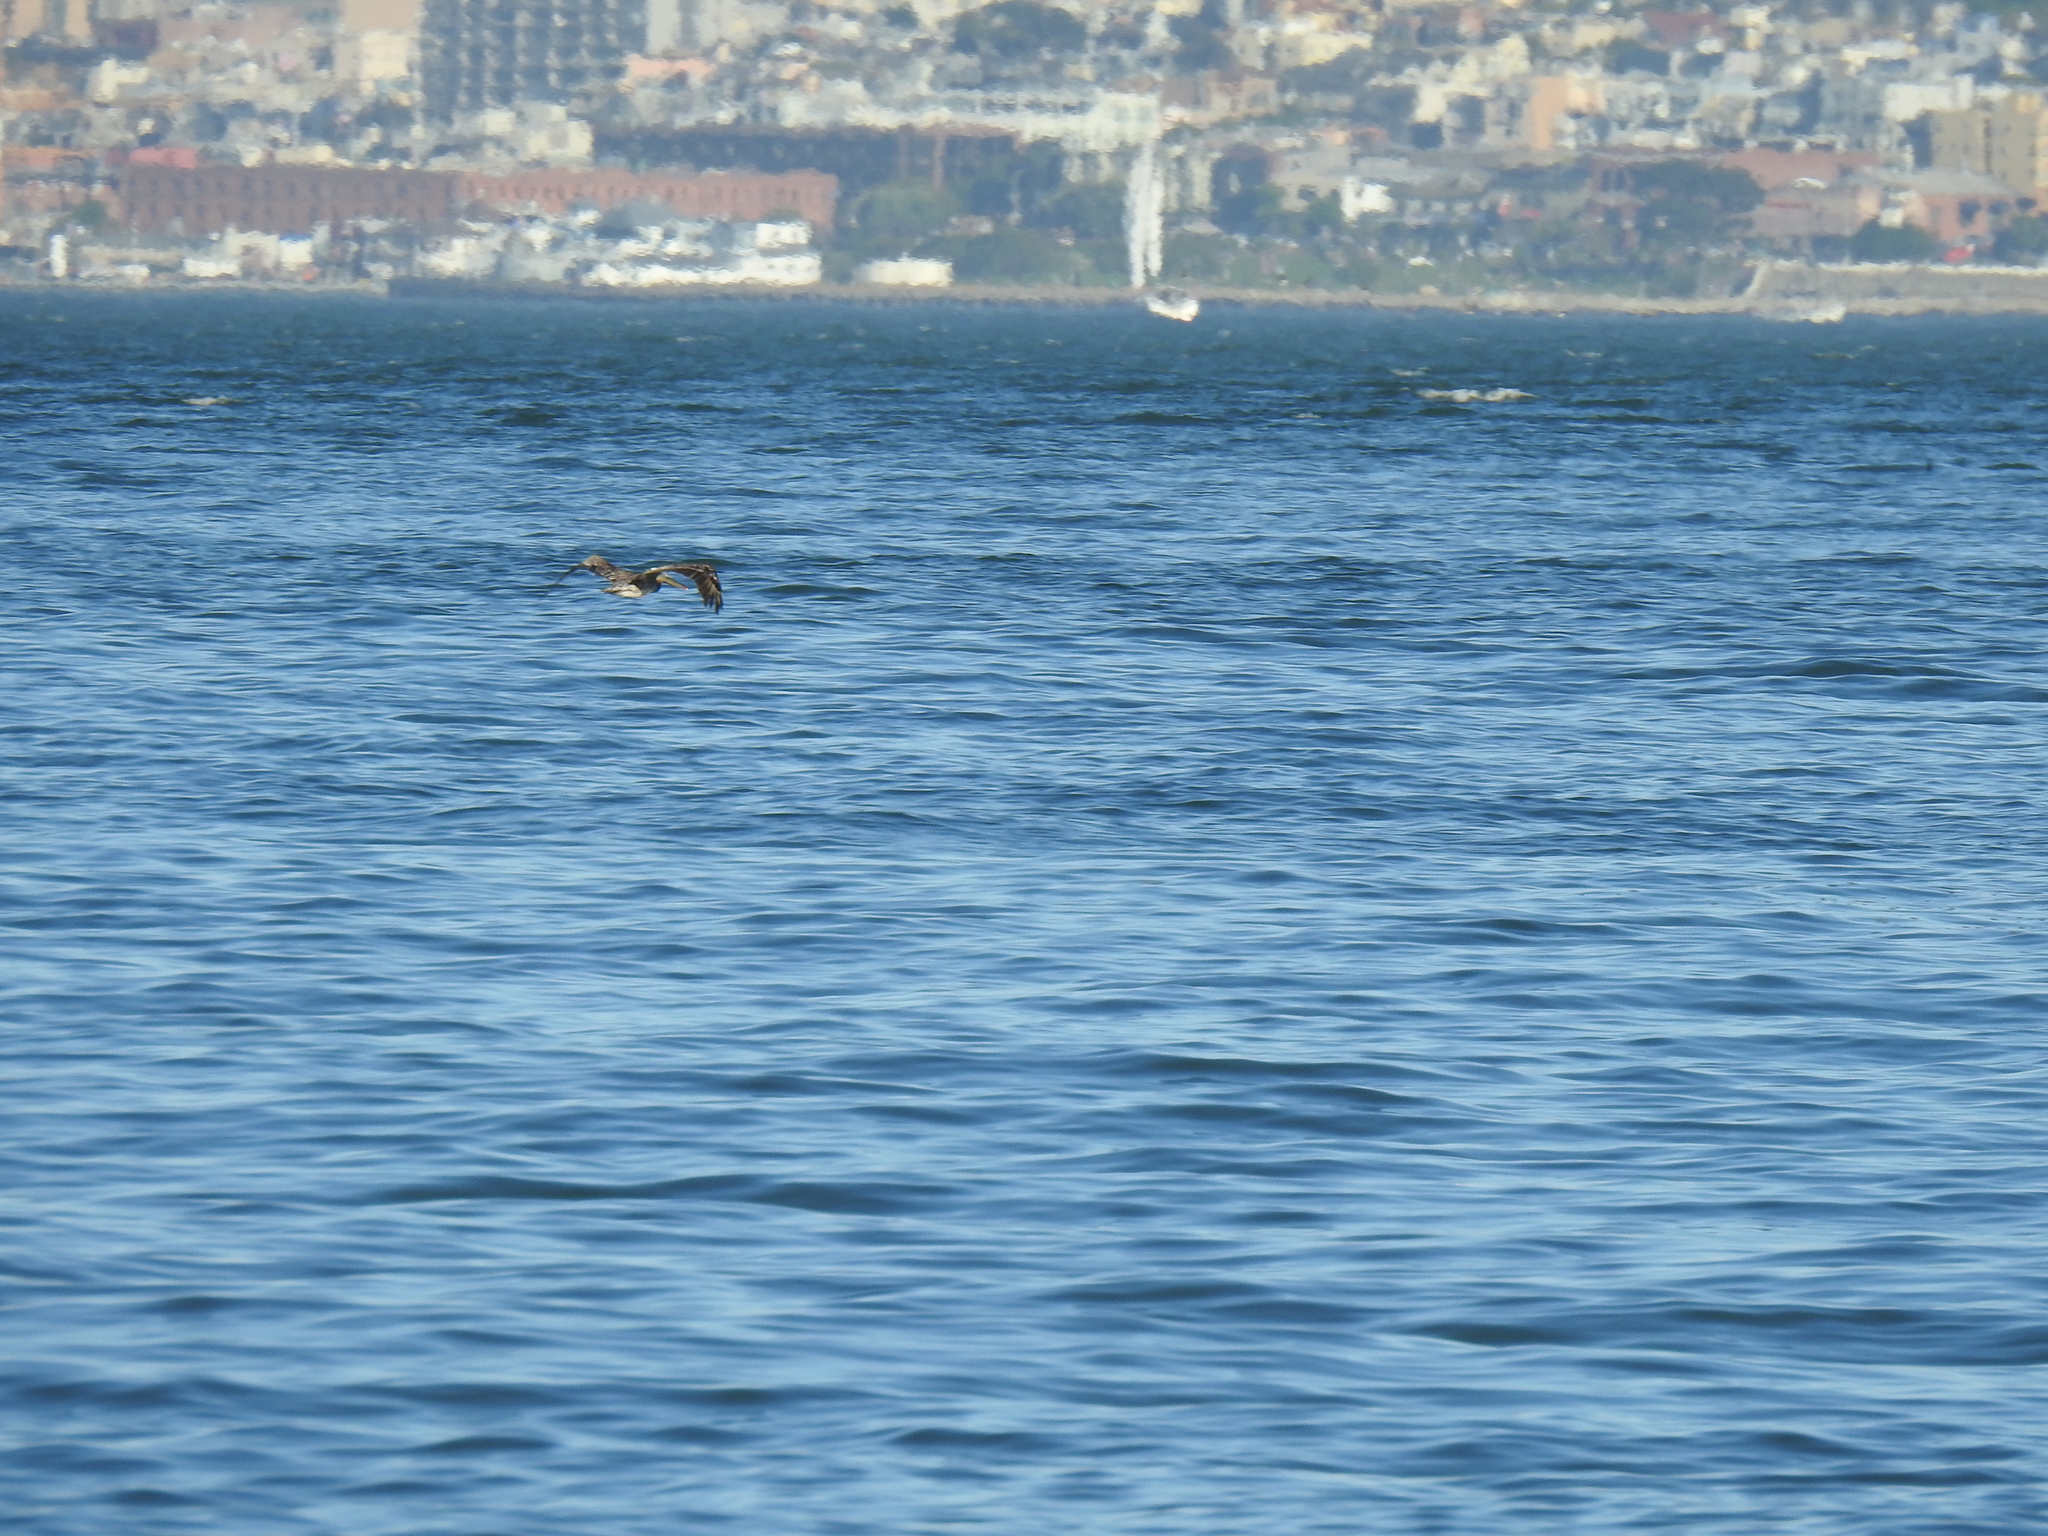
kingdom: Animalia
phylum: Chordata
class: Aves
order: Pelecaniformes
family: Pelecanidae
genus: Pelecanus
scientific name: Pelecanus occidentalis
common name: Brown pelican
